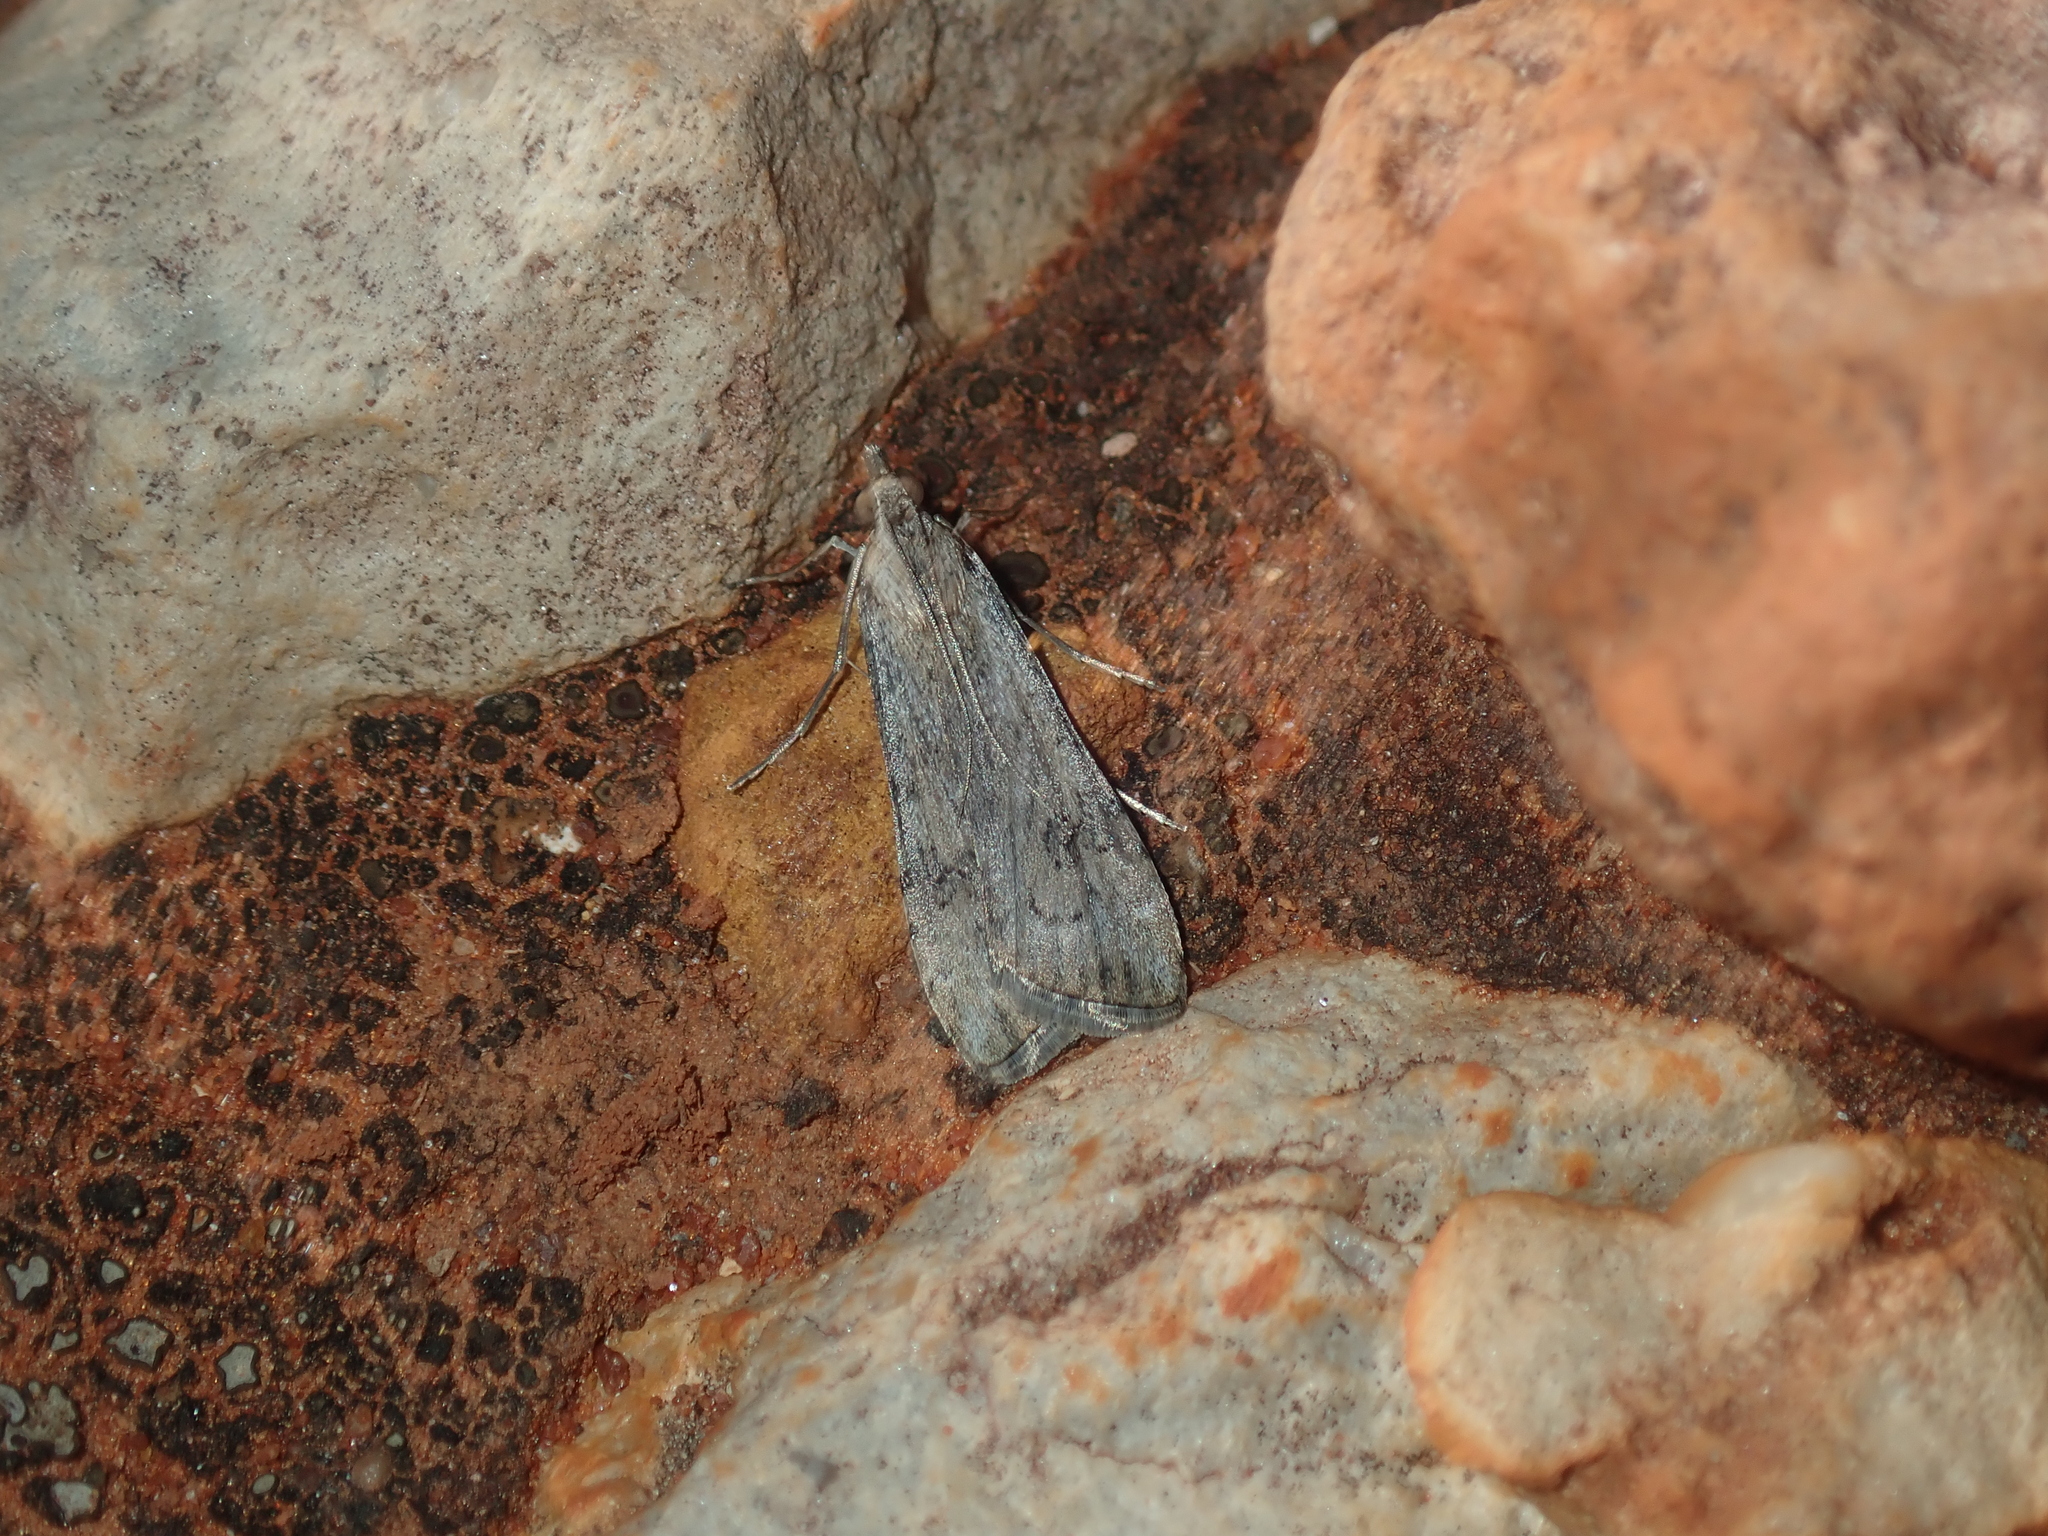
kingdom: Animalia
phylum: Arthropoda
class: Insecta
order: Lepidoptera
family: Crambidae
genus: Nomophila
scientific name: Nomophila corticalis
